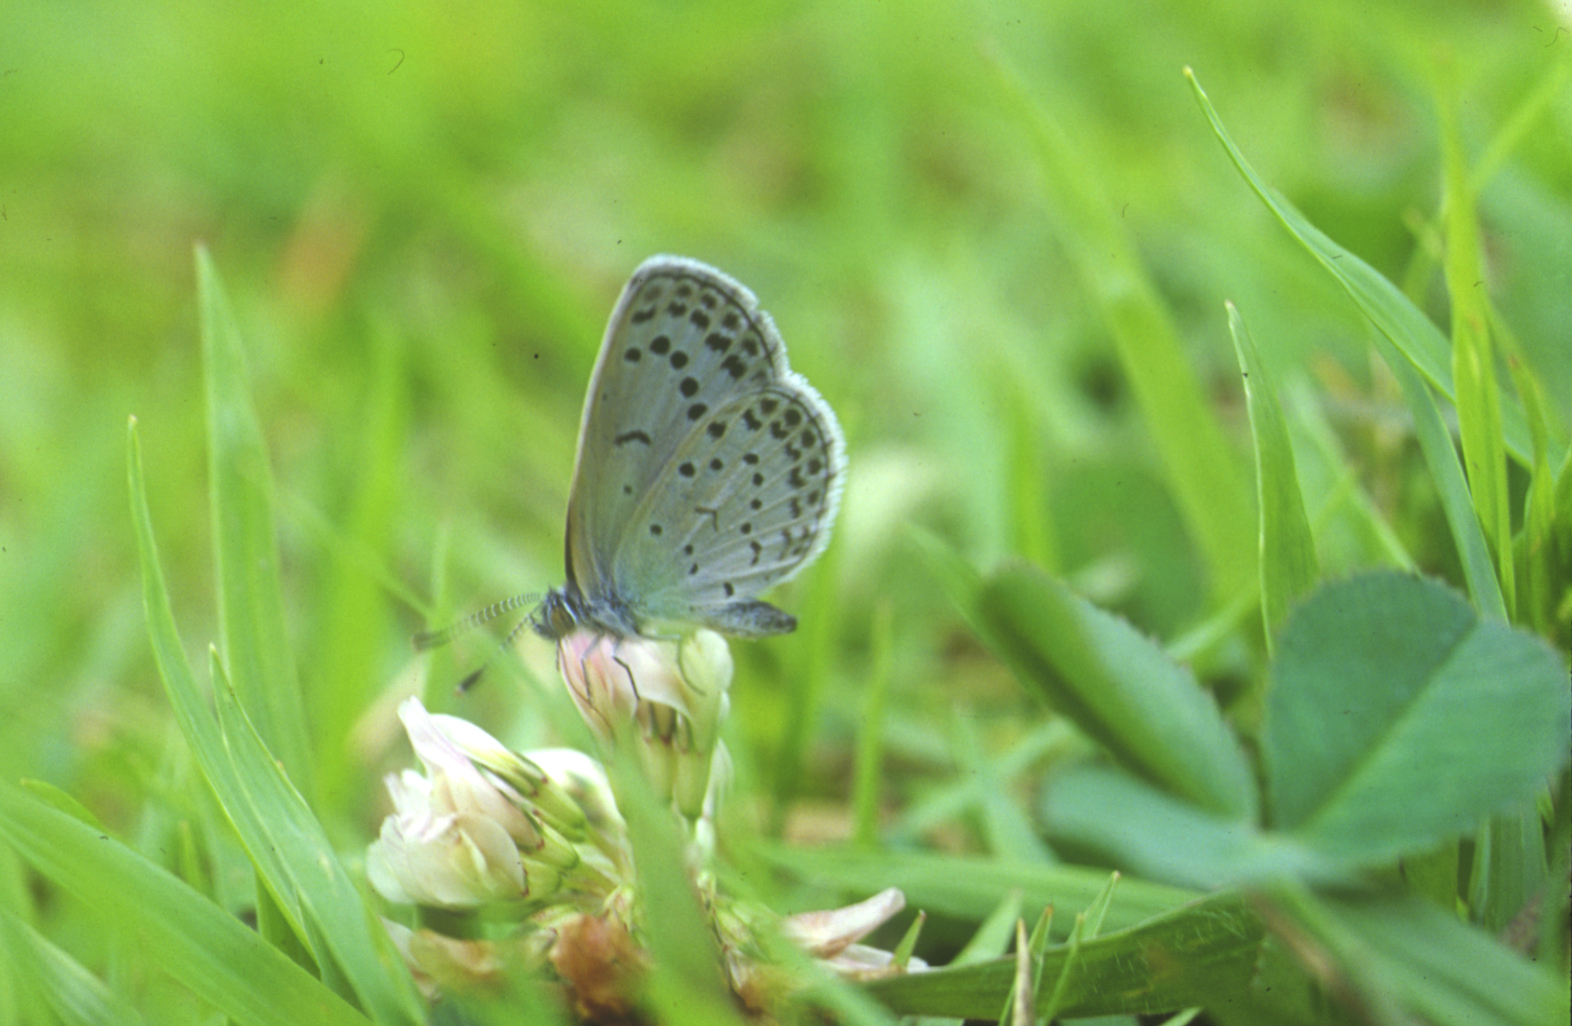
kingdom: Animalia
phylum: Arthropoda
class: Insecta
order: Lepidoptera
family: Lycaenidae
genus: Pseudozizeeria
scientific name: Pseudozizeeria maha
